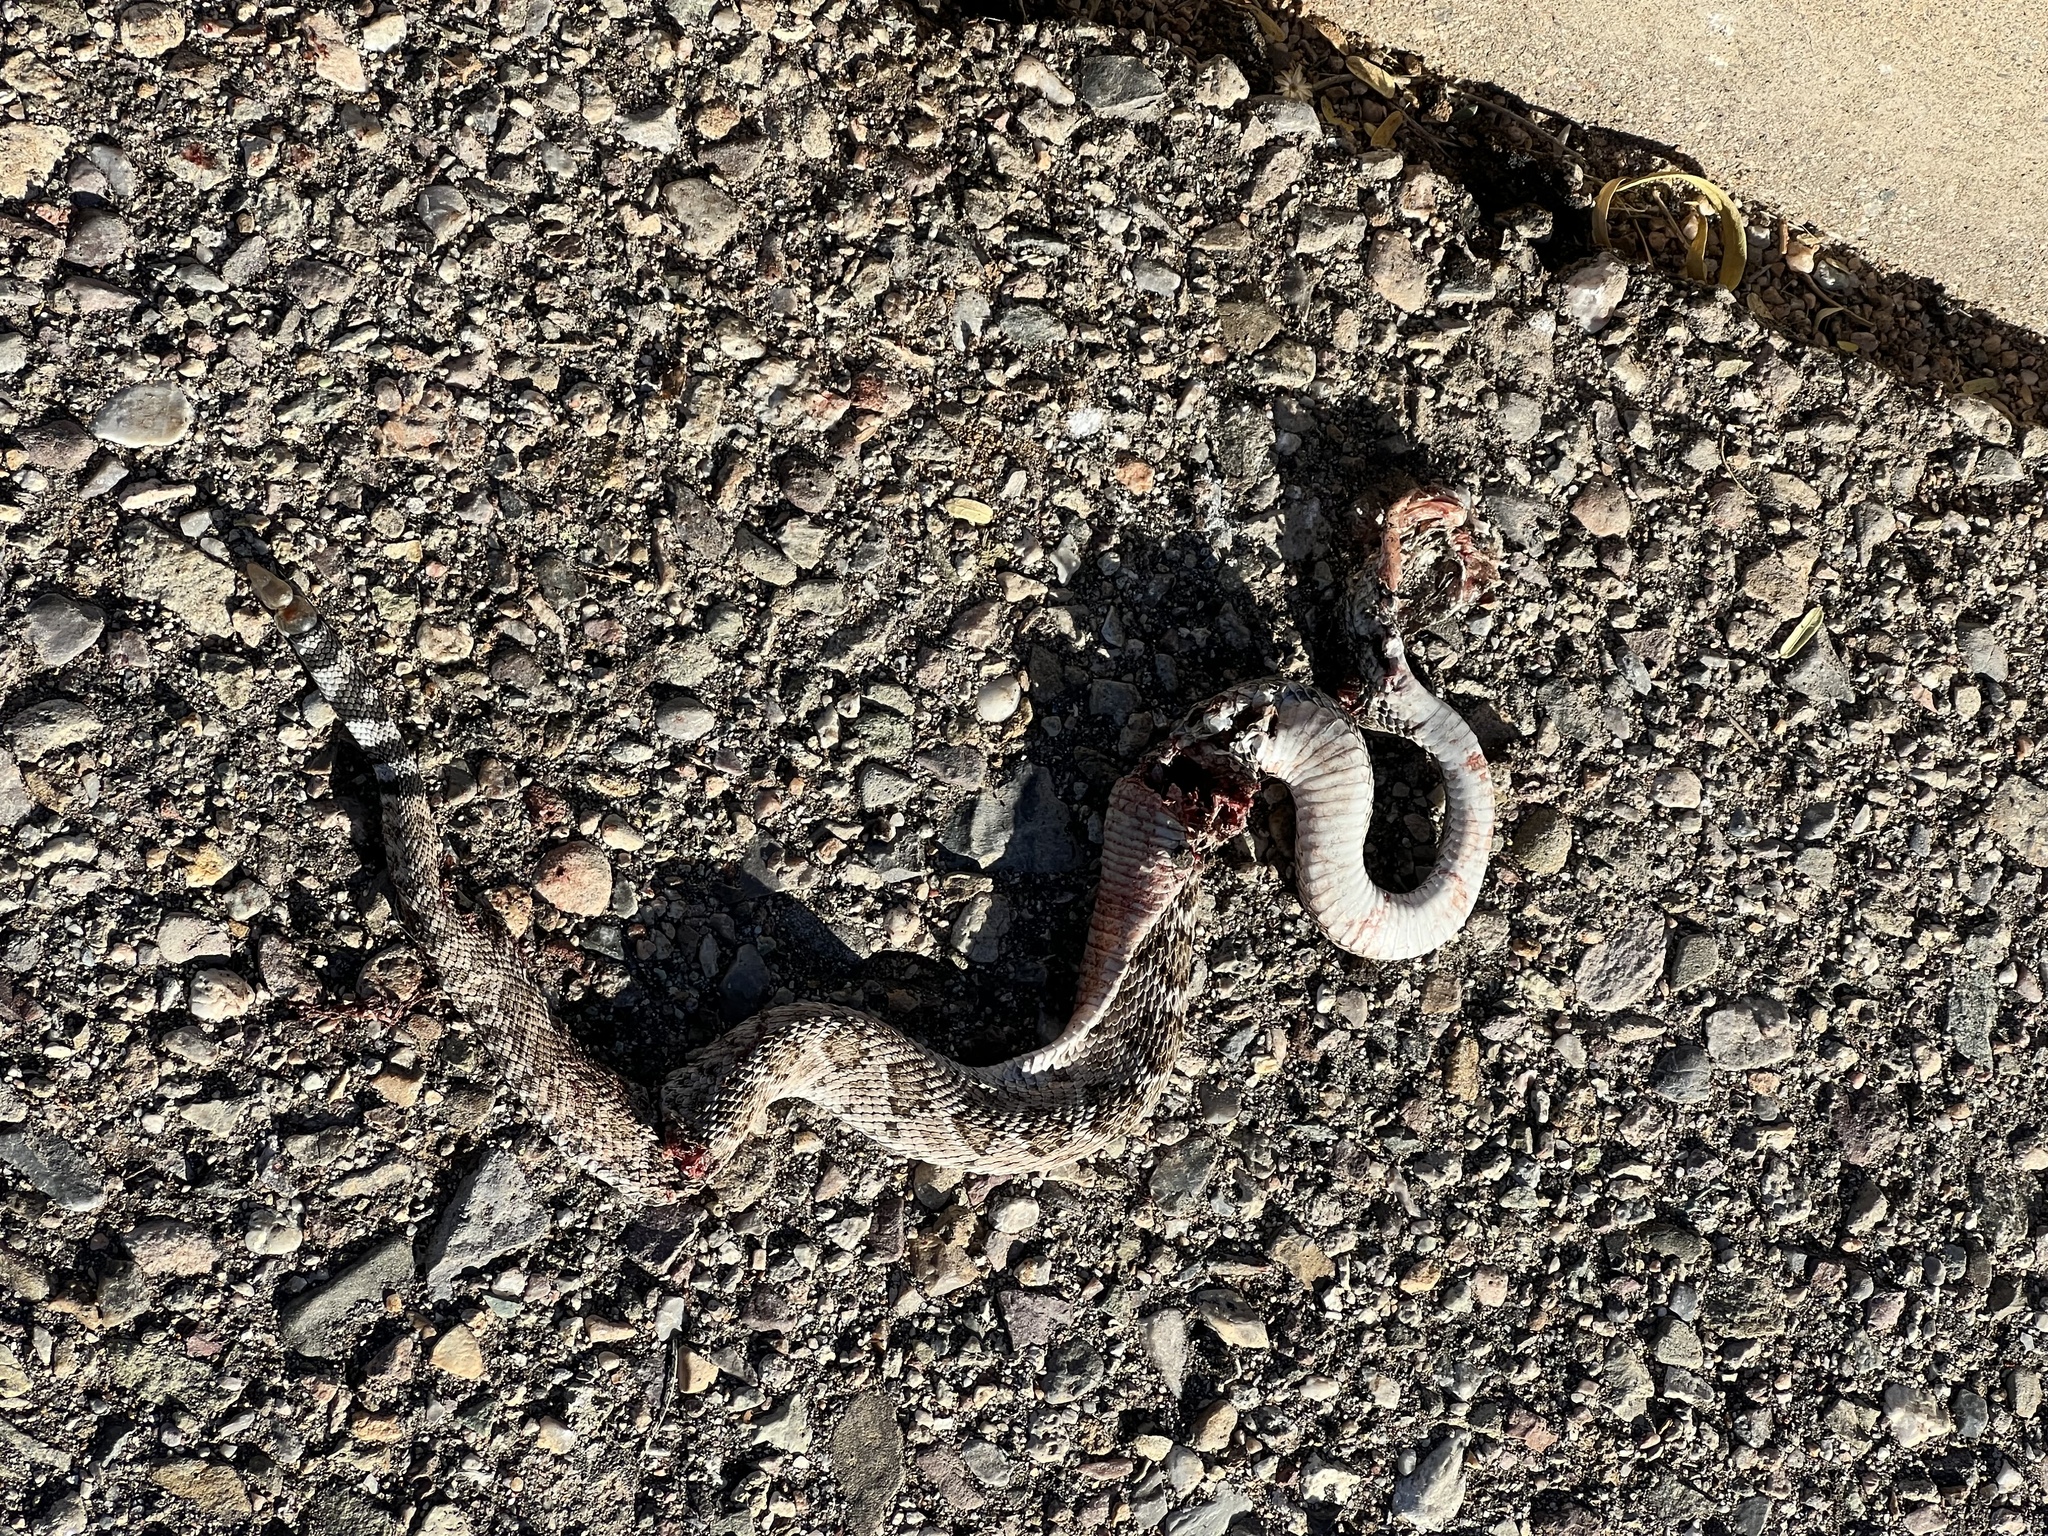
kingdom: Animalia
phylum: Chordata
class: Squamata
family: Viperidae
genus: Crotalus
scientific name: Crotalus atrox
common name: Western diamond-backed rattlesnake
